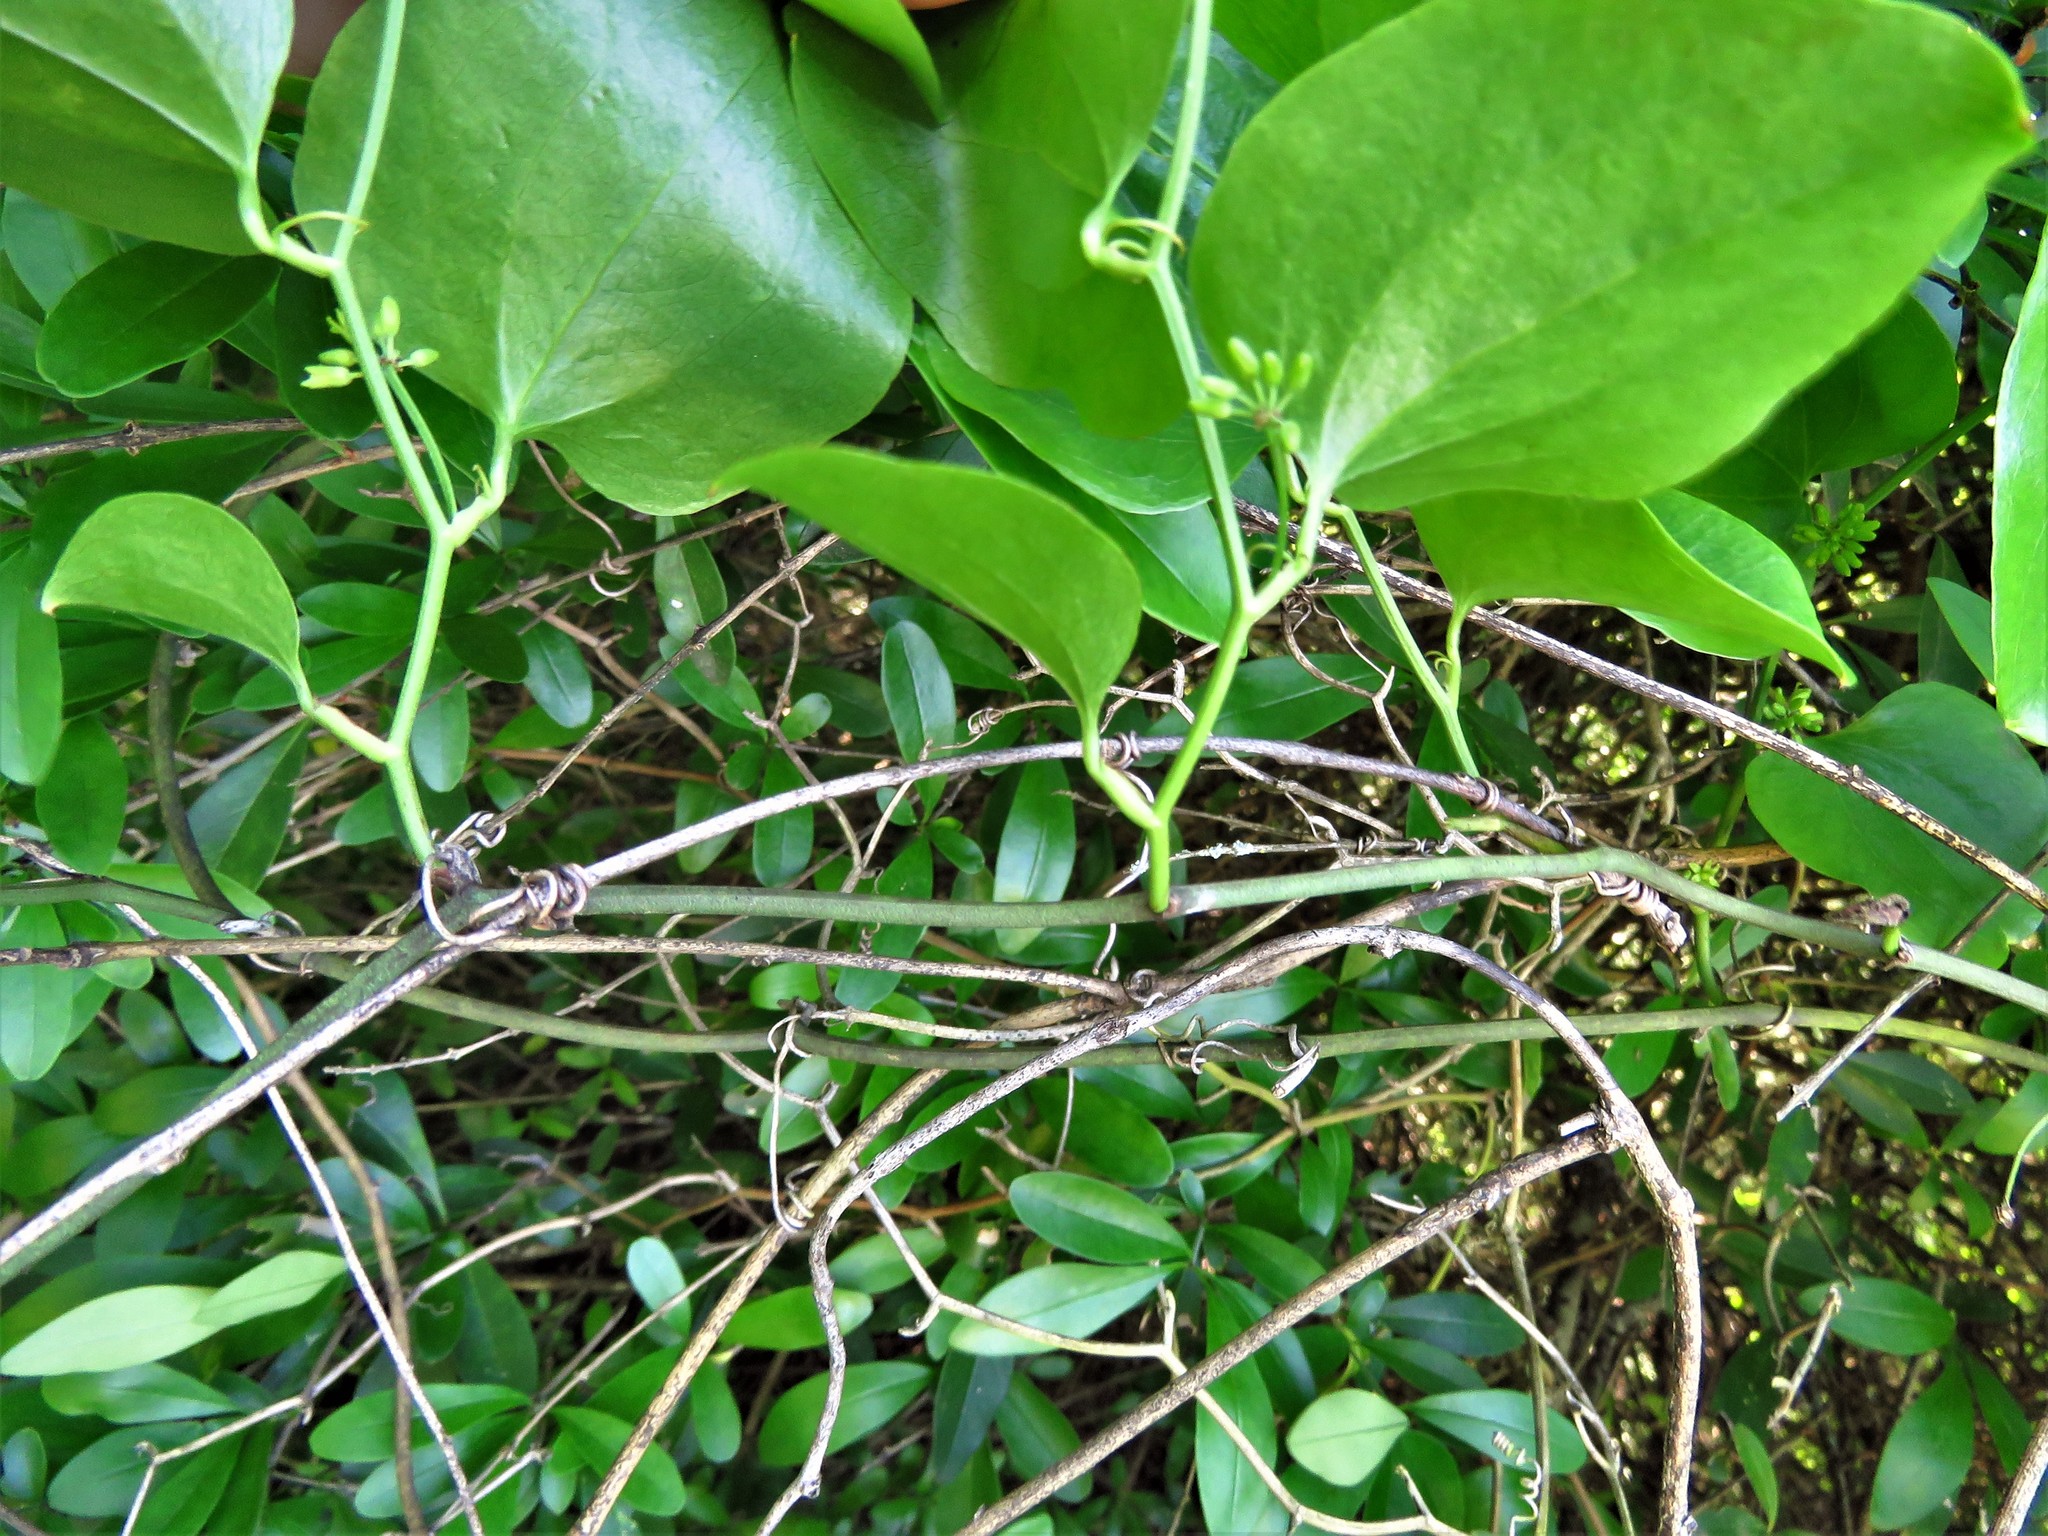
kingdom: Plantae
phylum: Tracheophyta
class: Liliopsida
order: Liliales
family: Smilacaceae
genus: Smilax
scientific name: Smilax rotundifolia
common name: Bullbriar
